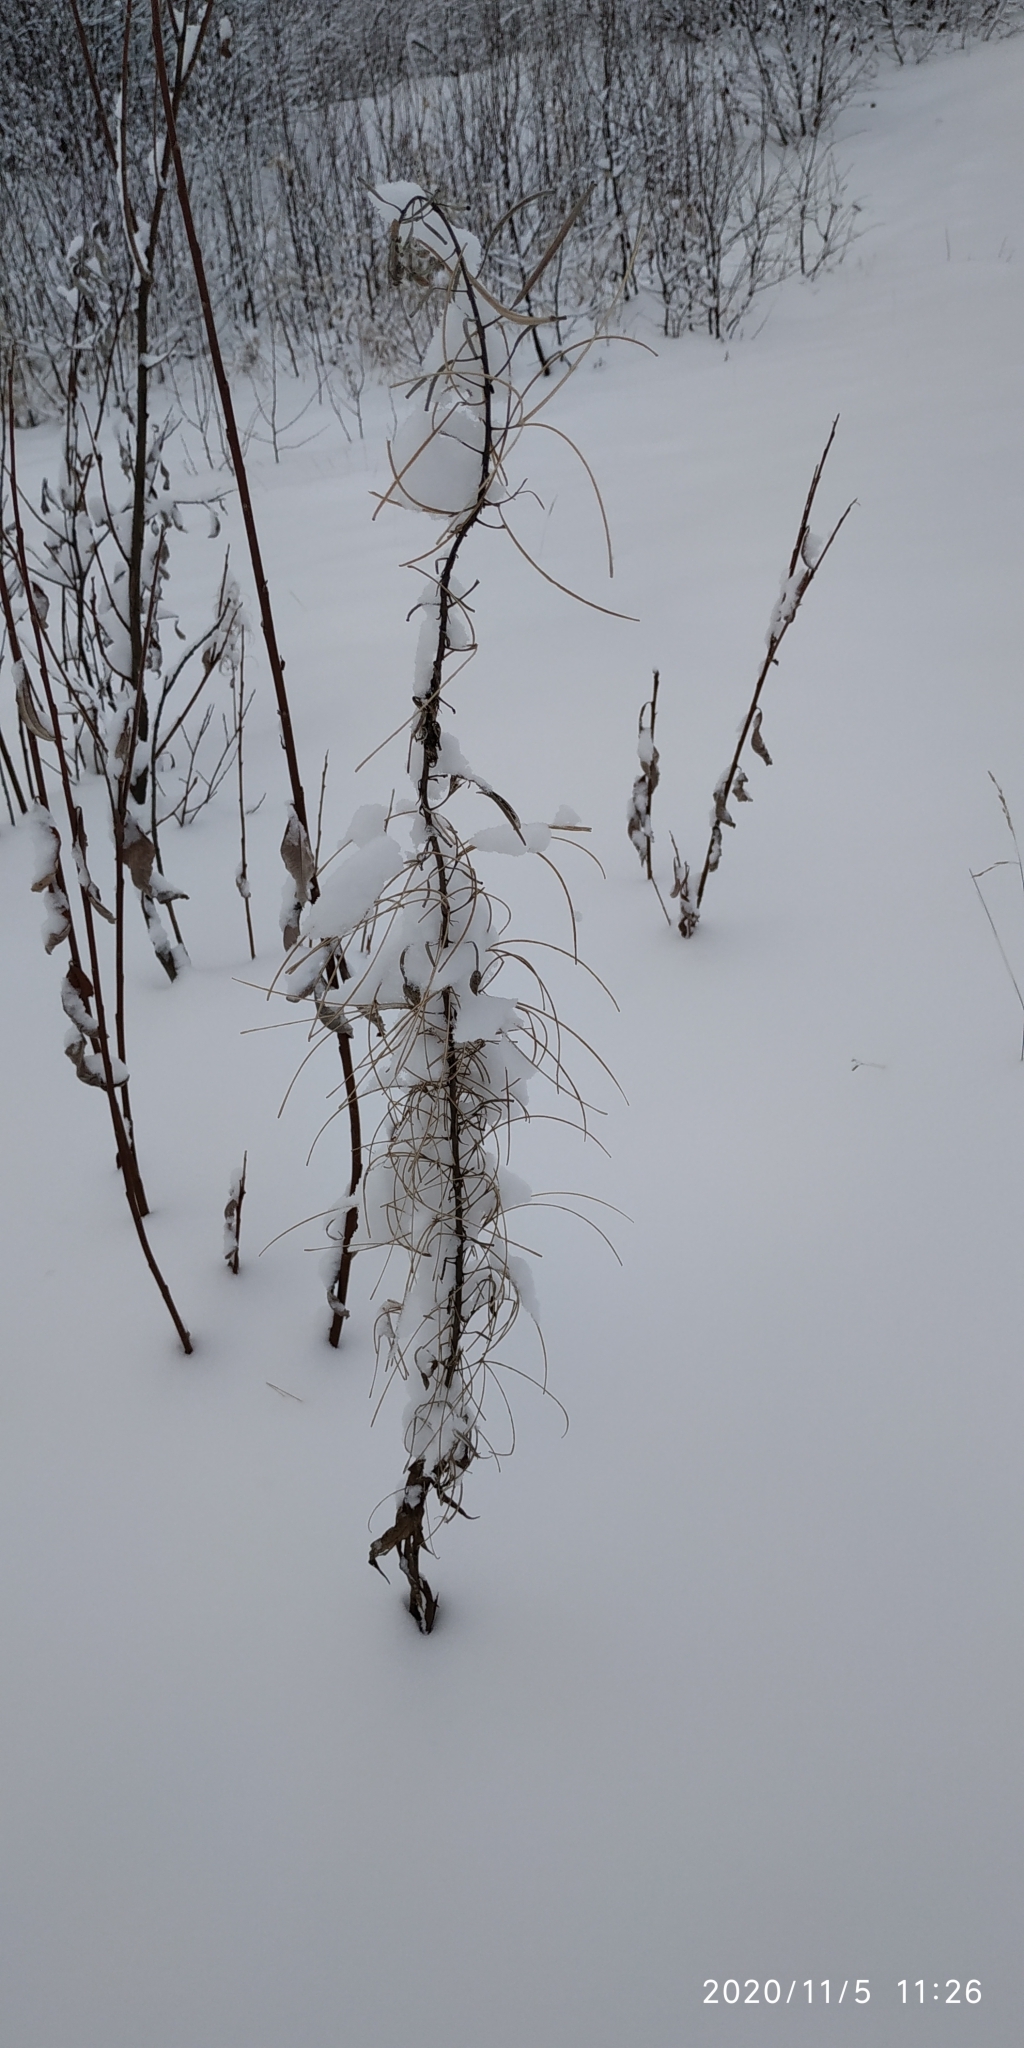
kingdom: Plantae
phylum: Tracheophyta
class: Magnoliopsida
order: Myrtales
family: Onagraceae
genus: Chamaenerion
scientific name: Chamaenerion angustifolium
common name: Fireweed
